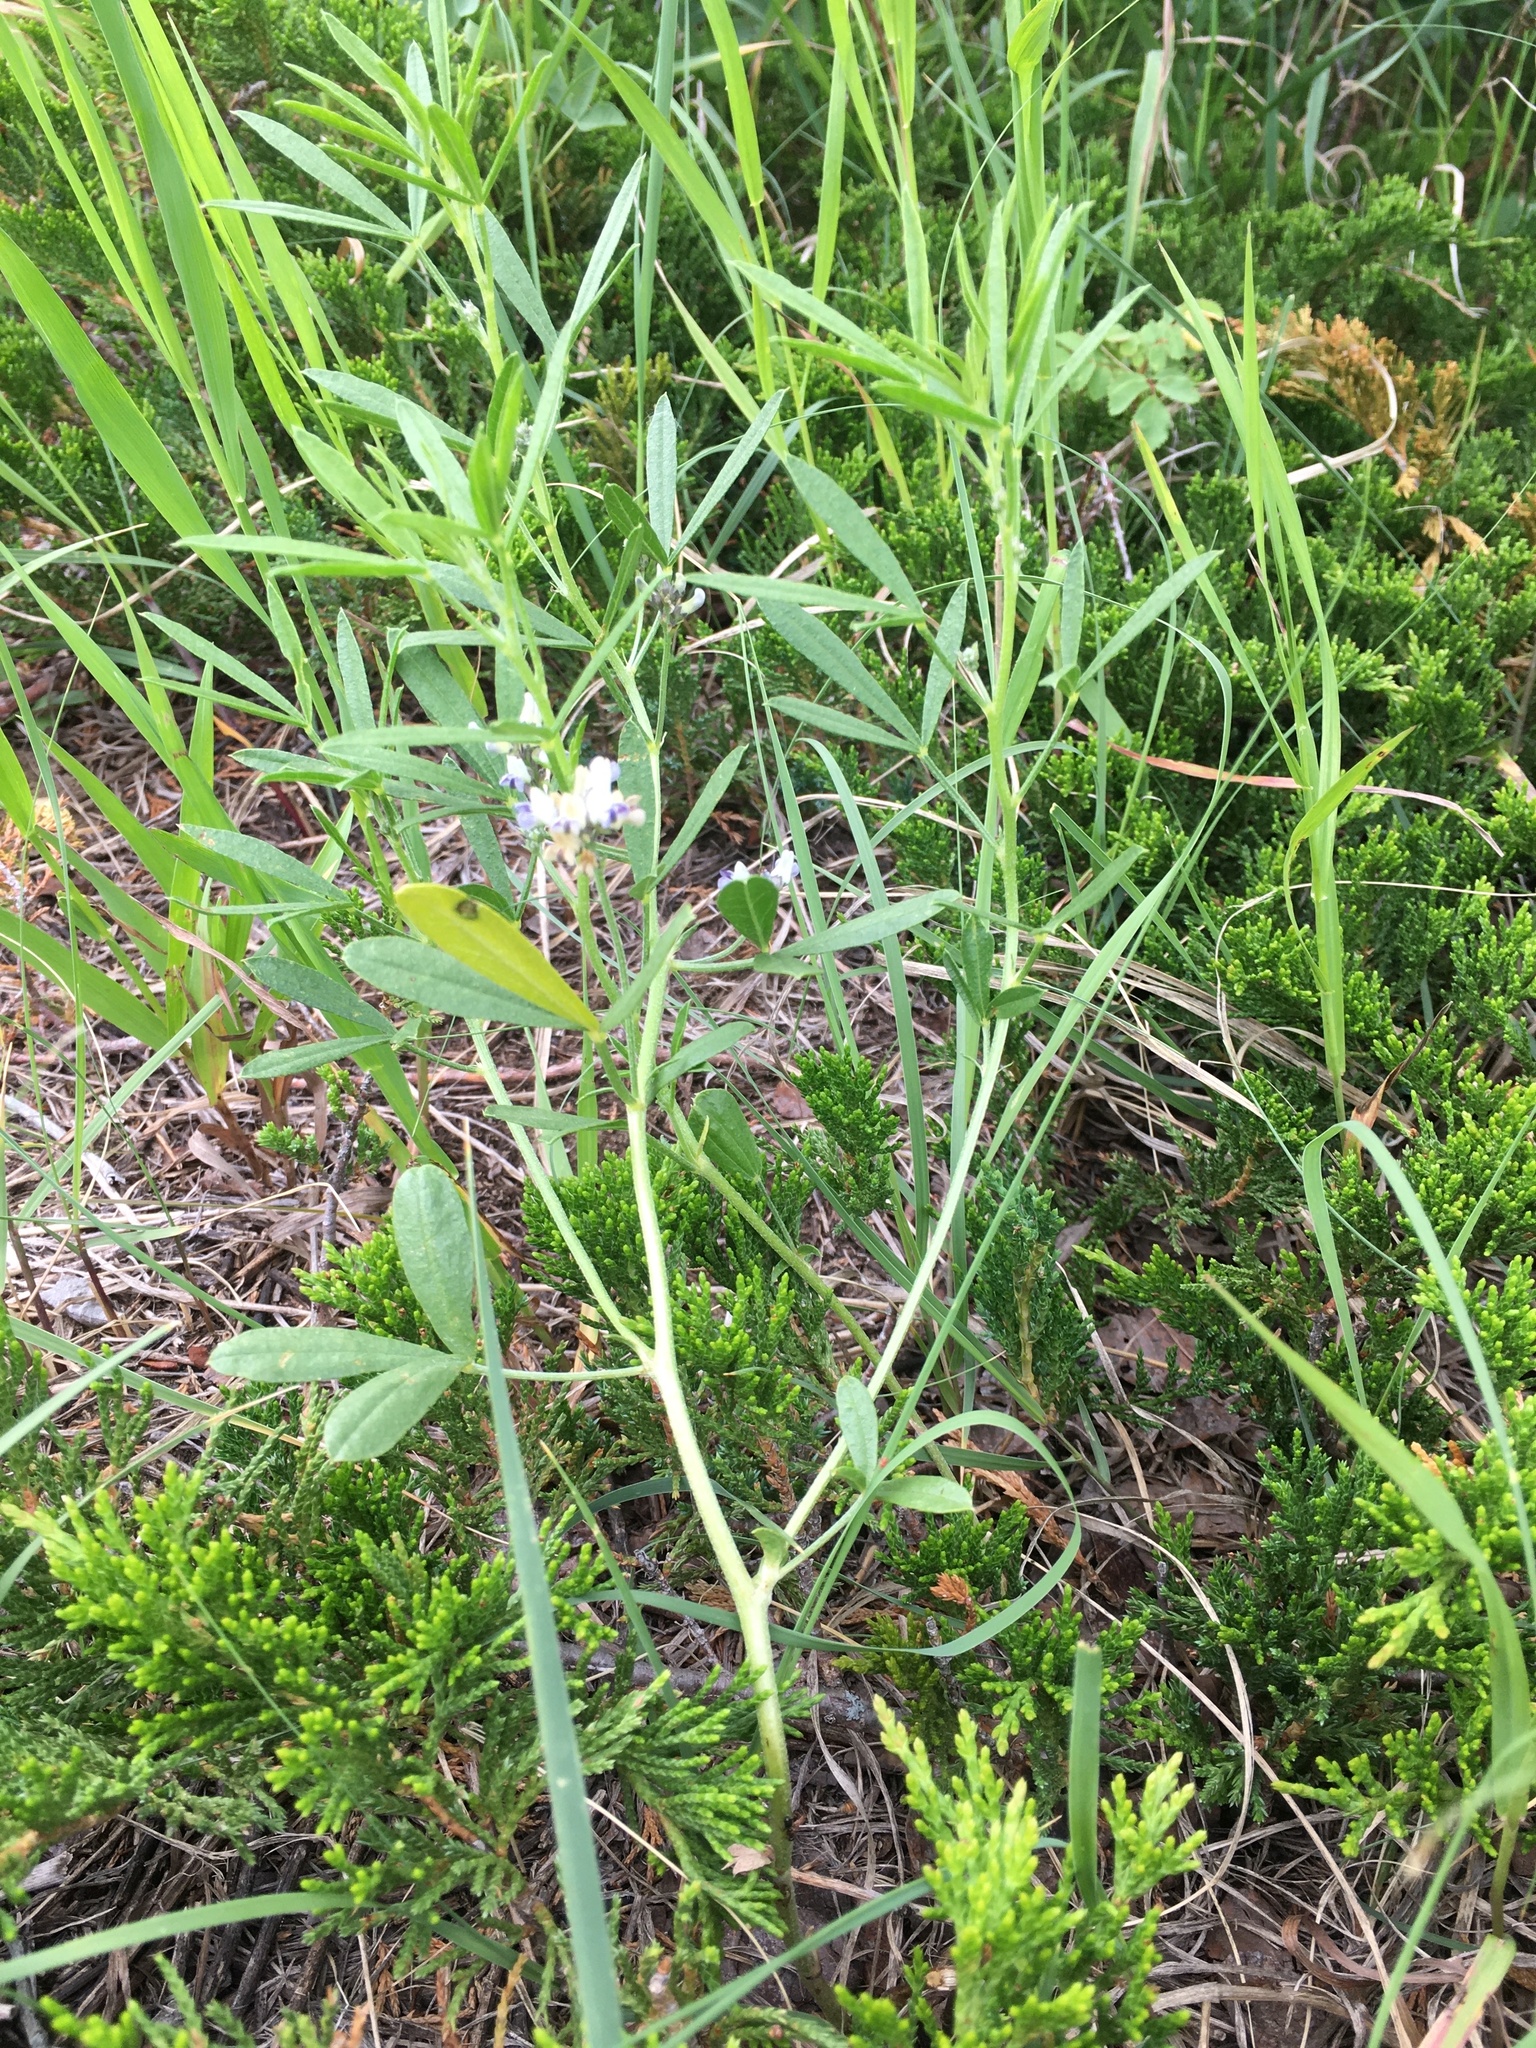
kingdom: Plantae
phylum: Tracheophyta
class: Magnoliopsida
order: Fabales
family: Fabaceae
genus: Ladeania
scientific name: Ladeania lanceolata
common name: Dune scurf-pea
